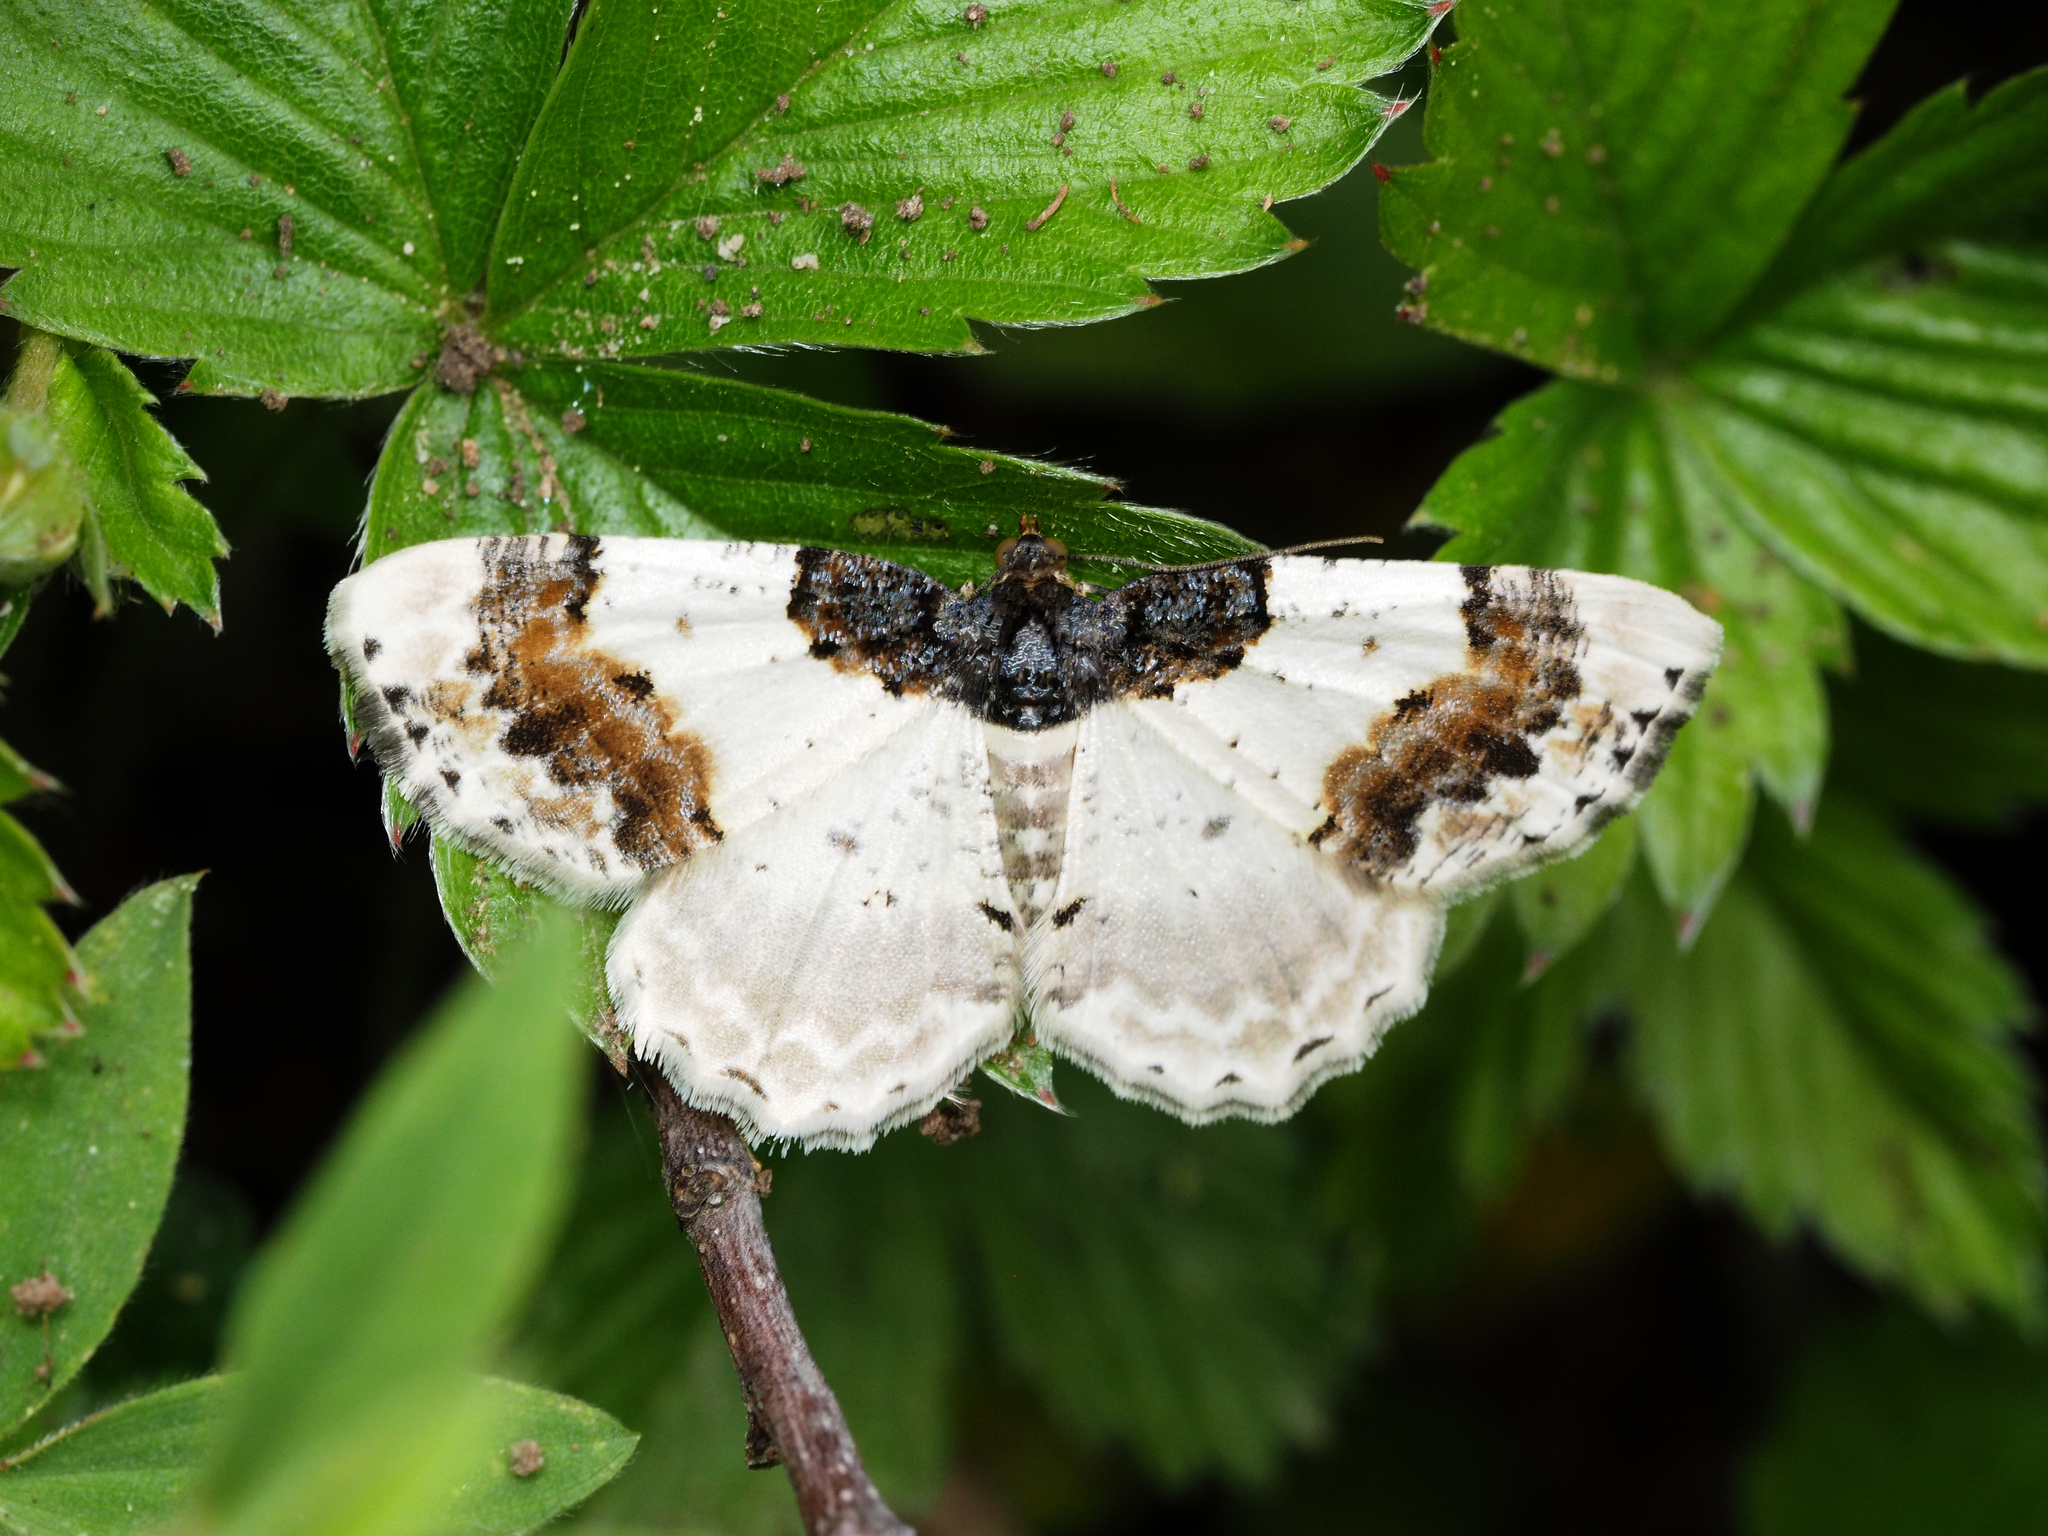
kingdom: Animalia
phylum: Arthropoda
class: Insecta
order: Lepidoptera
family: Geometridae
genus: Ligdia
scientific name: Ligdia adustata
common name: Scorched carpet
